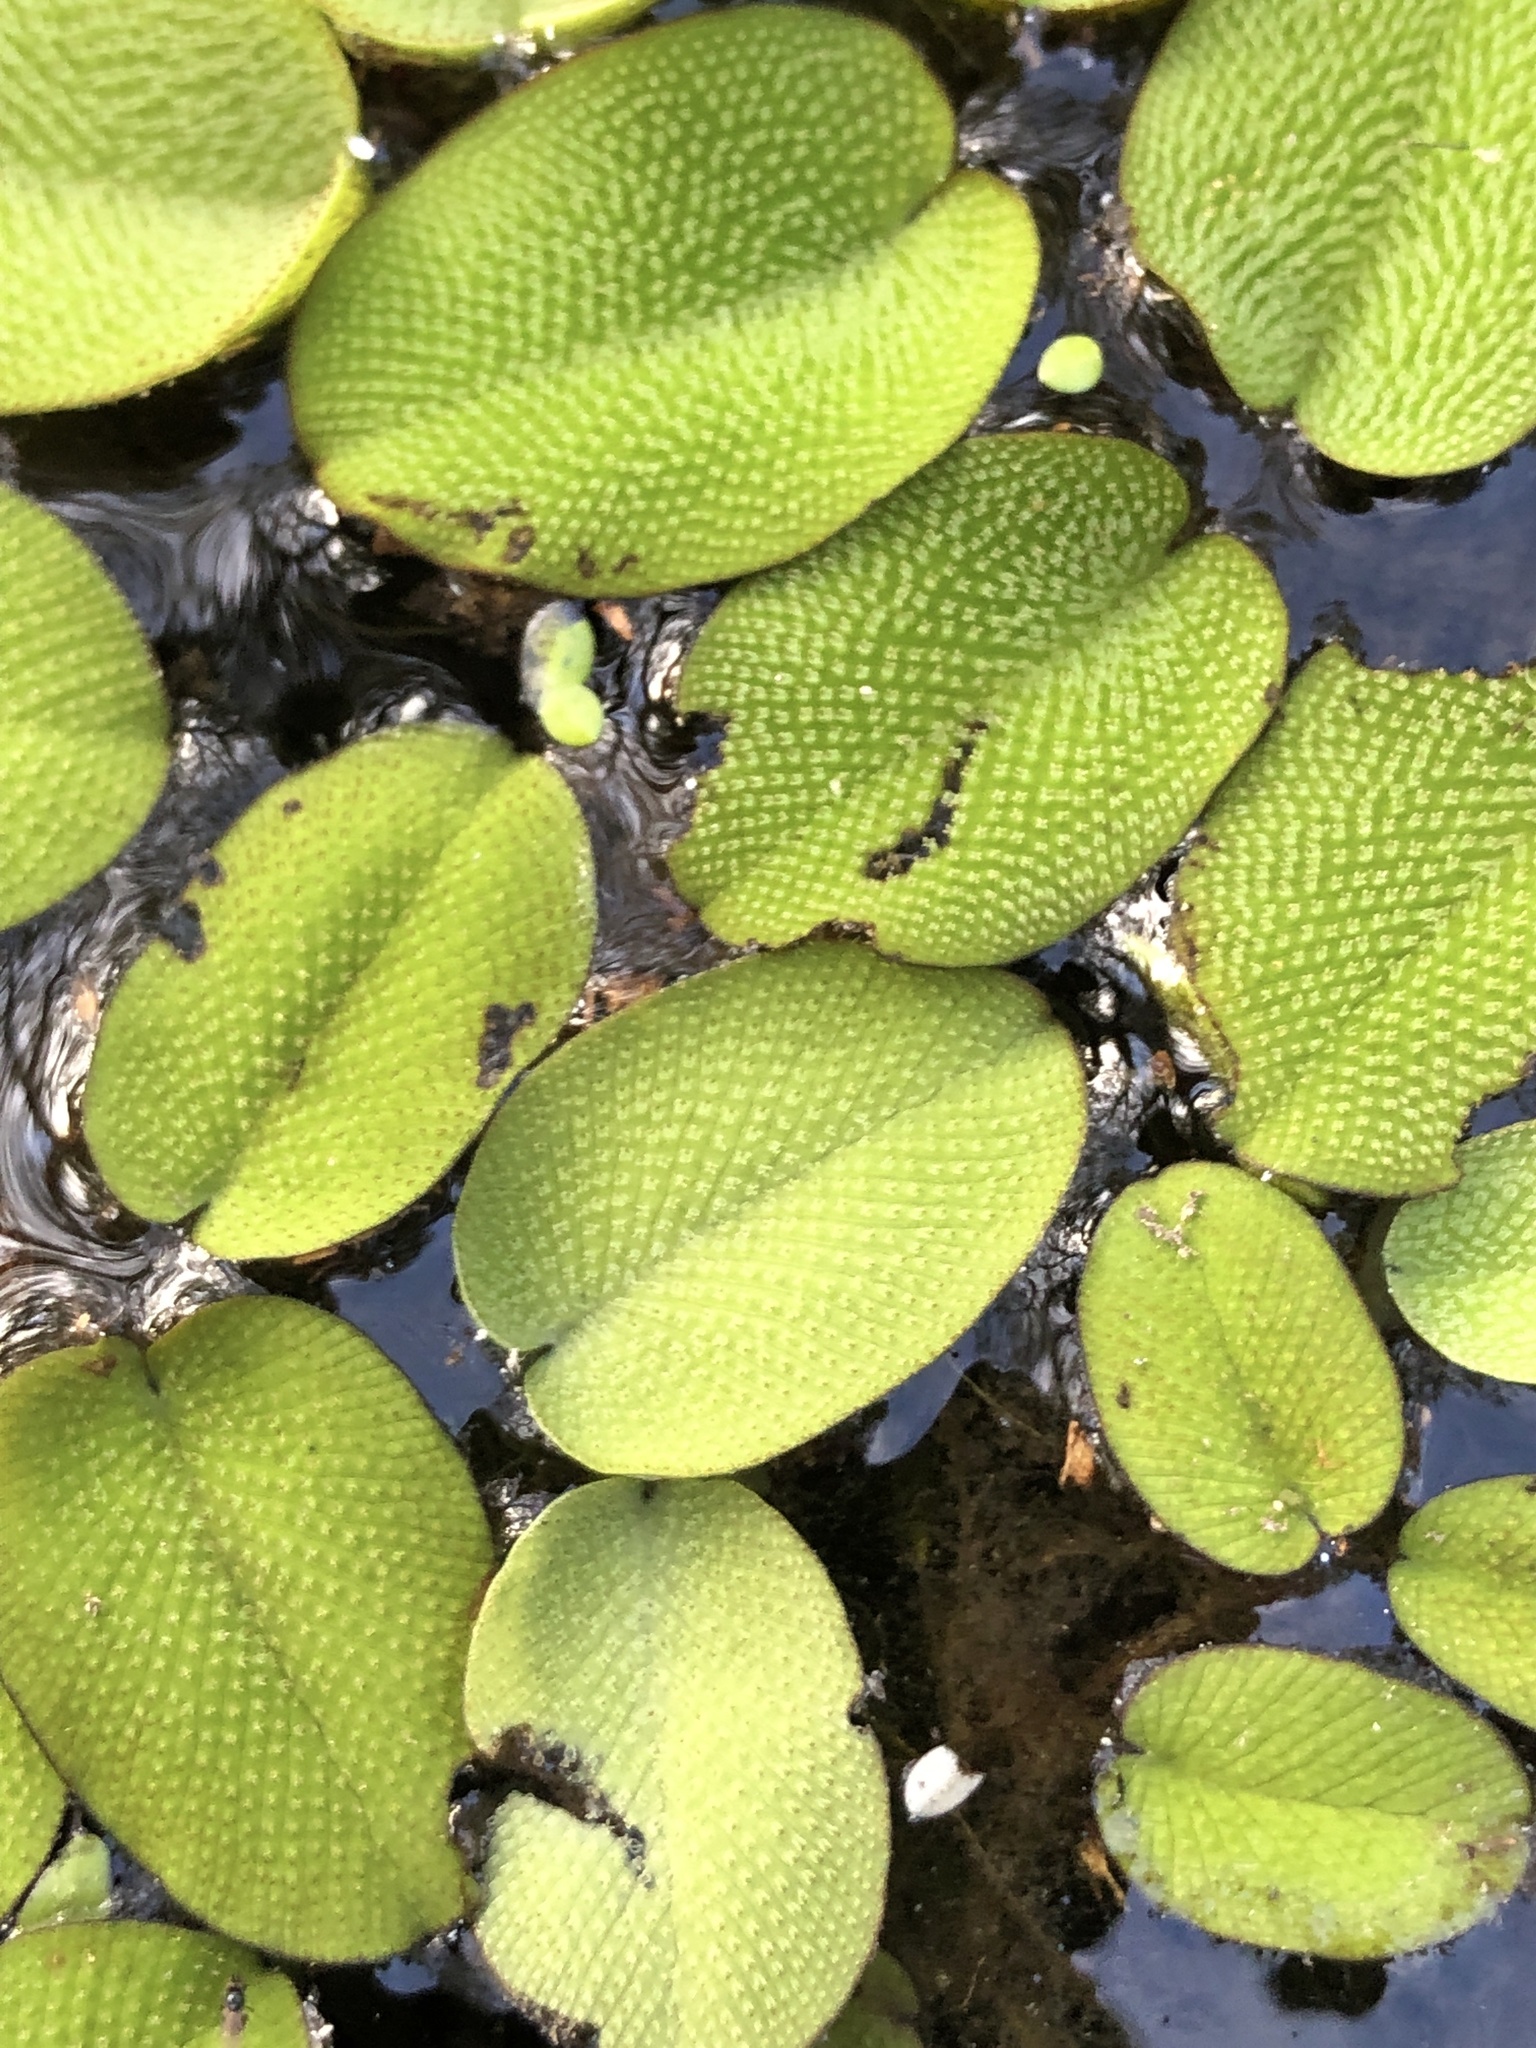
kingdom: Plantae
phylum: Tracheophyta
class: Polypodiopsida
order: Salviniales
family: Salviniaceae
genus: Salvinia
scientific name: Salvinia molesta
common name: Kariba weed
